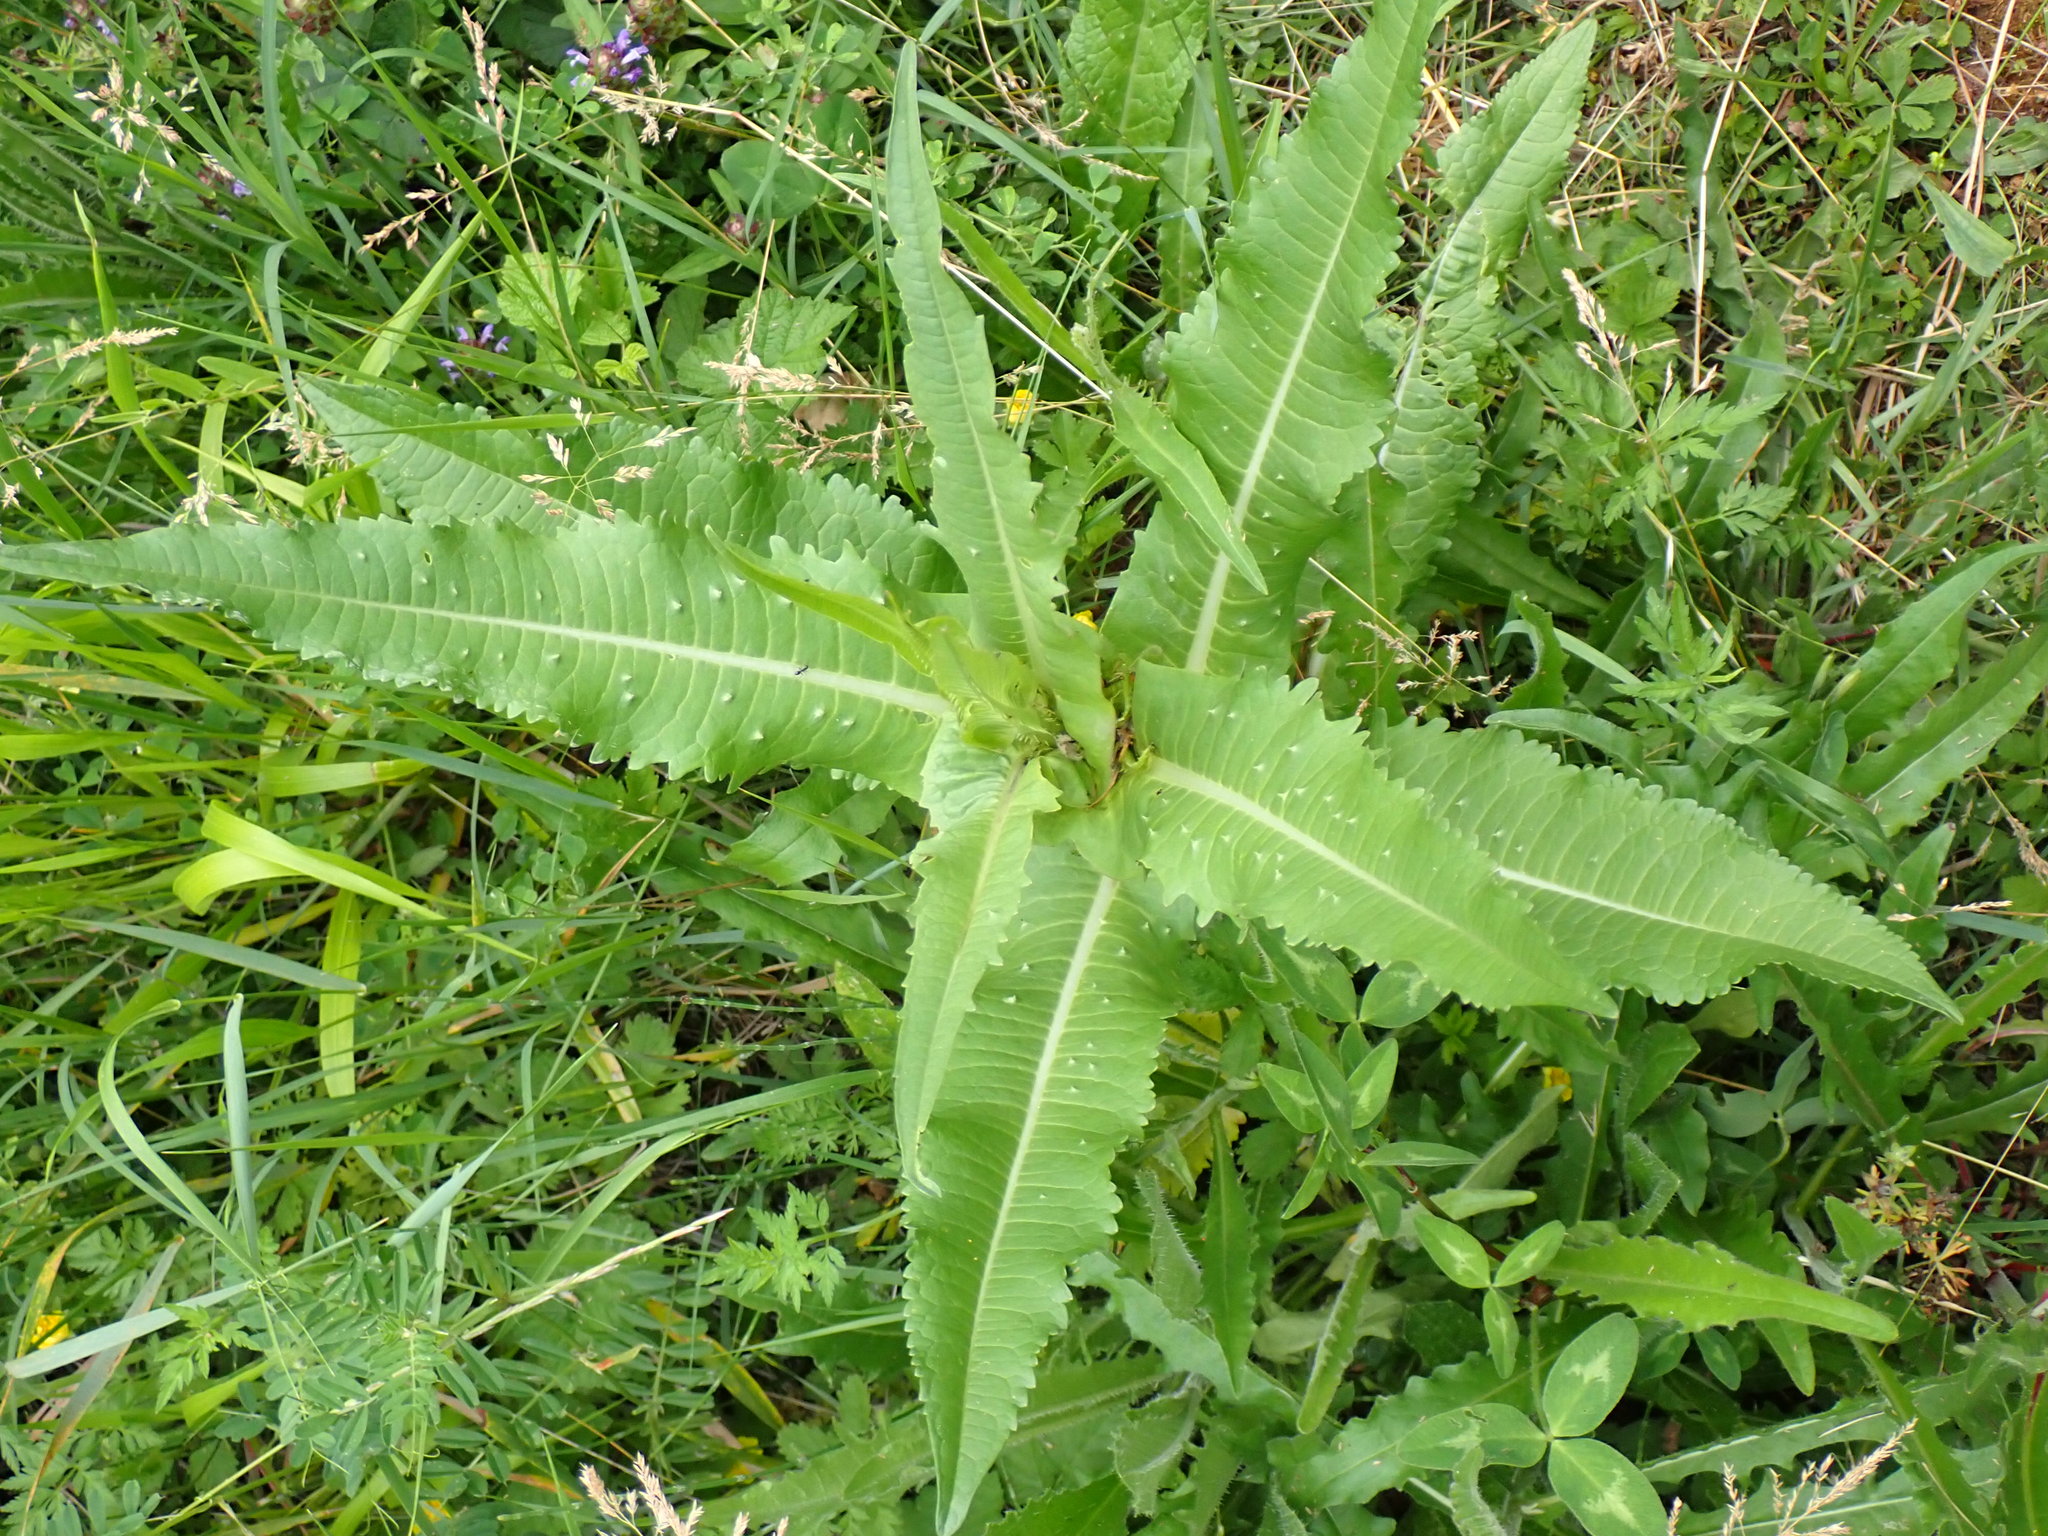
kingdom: Plantae
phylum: Tracheophyta
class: Magnoliopsida
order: Dipsacales
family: Caprifoliaceae
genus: Dipsacus
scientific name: Dipsacus fullonum
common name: Teasel
